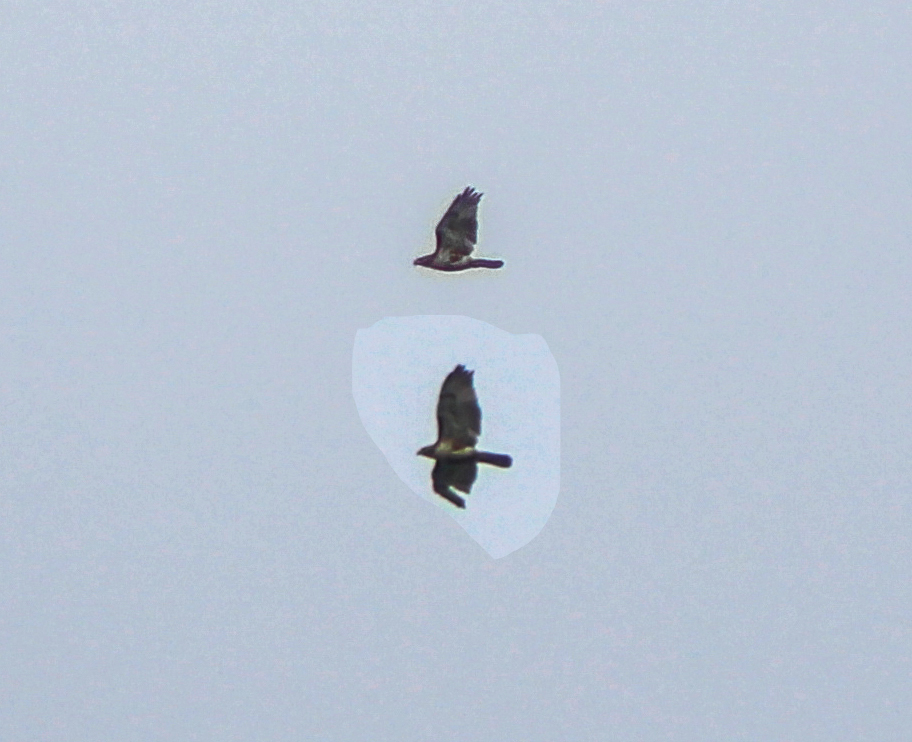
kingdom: Animalia
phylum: Chordata
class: Aves
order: Accipitriformes
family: Accipitridae
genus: Buteo
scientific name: Buteo jamaicensis
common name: Red-tailed hawk
